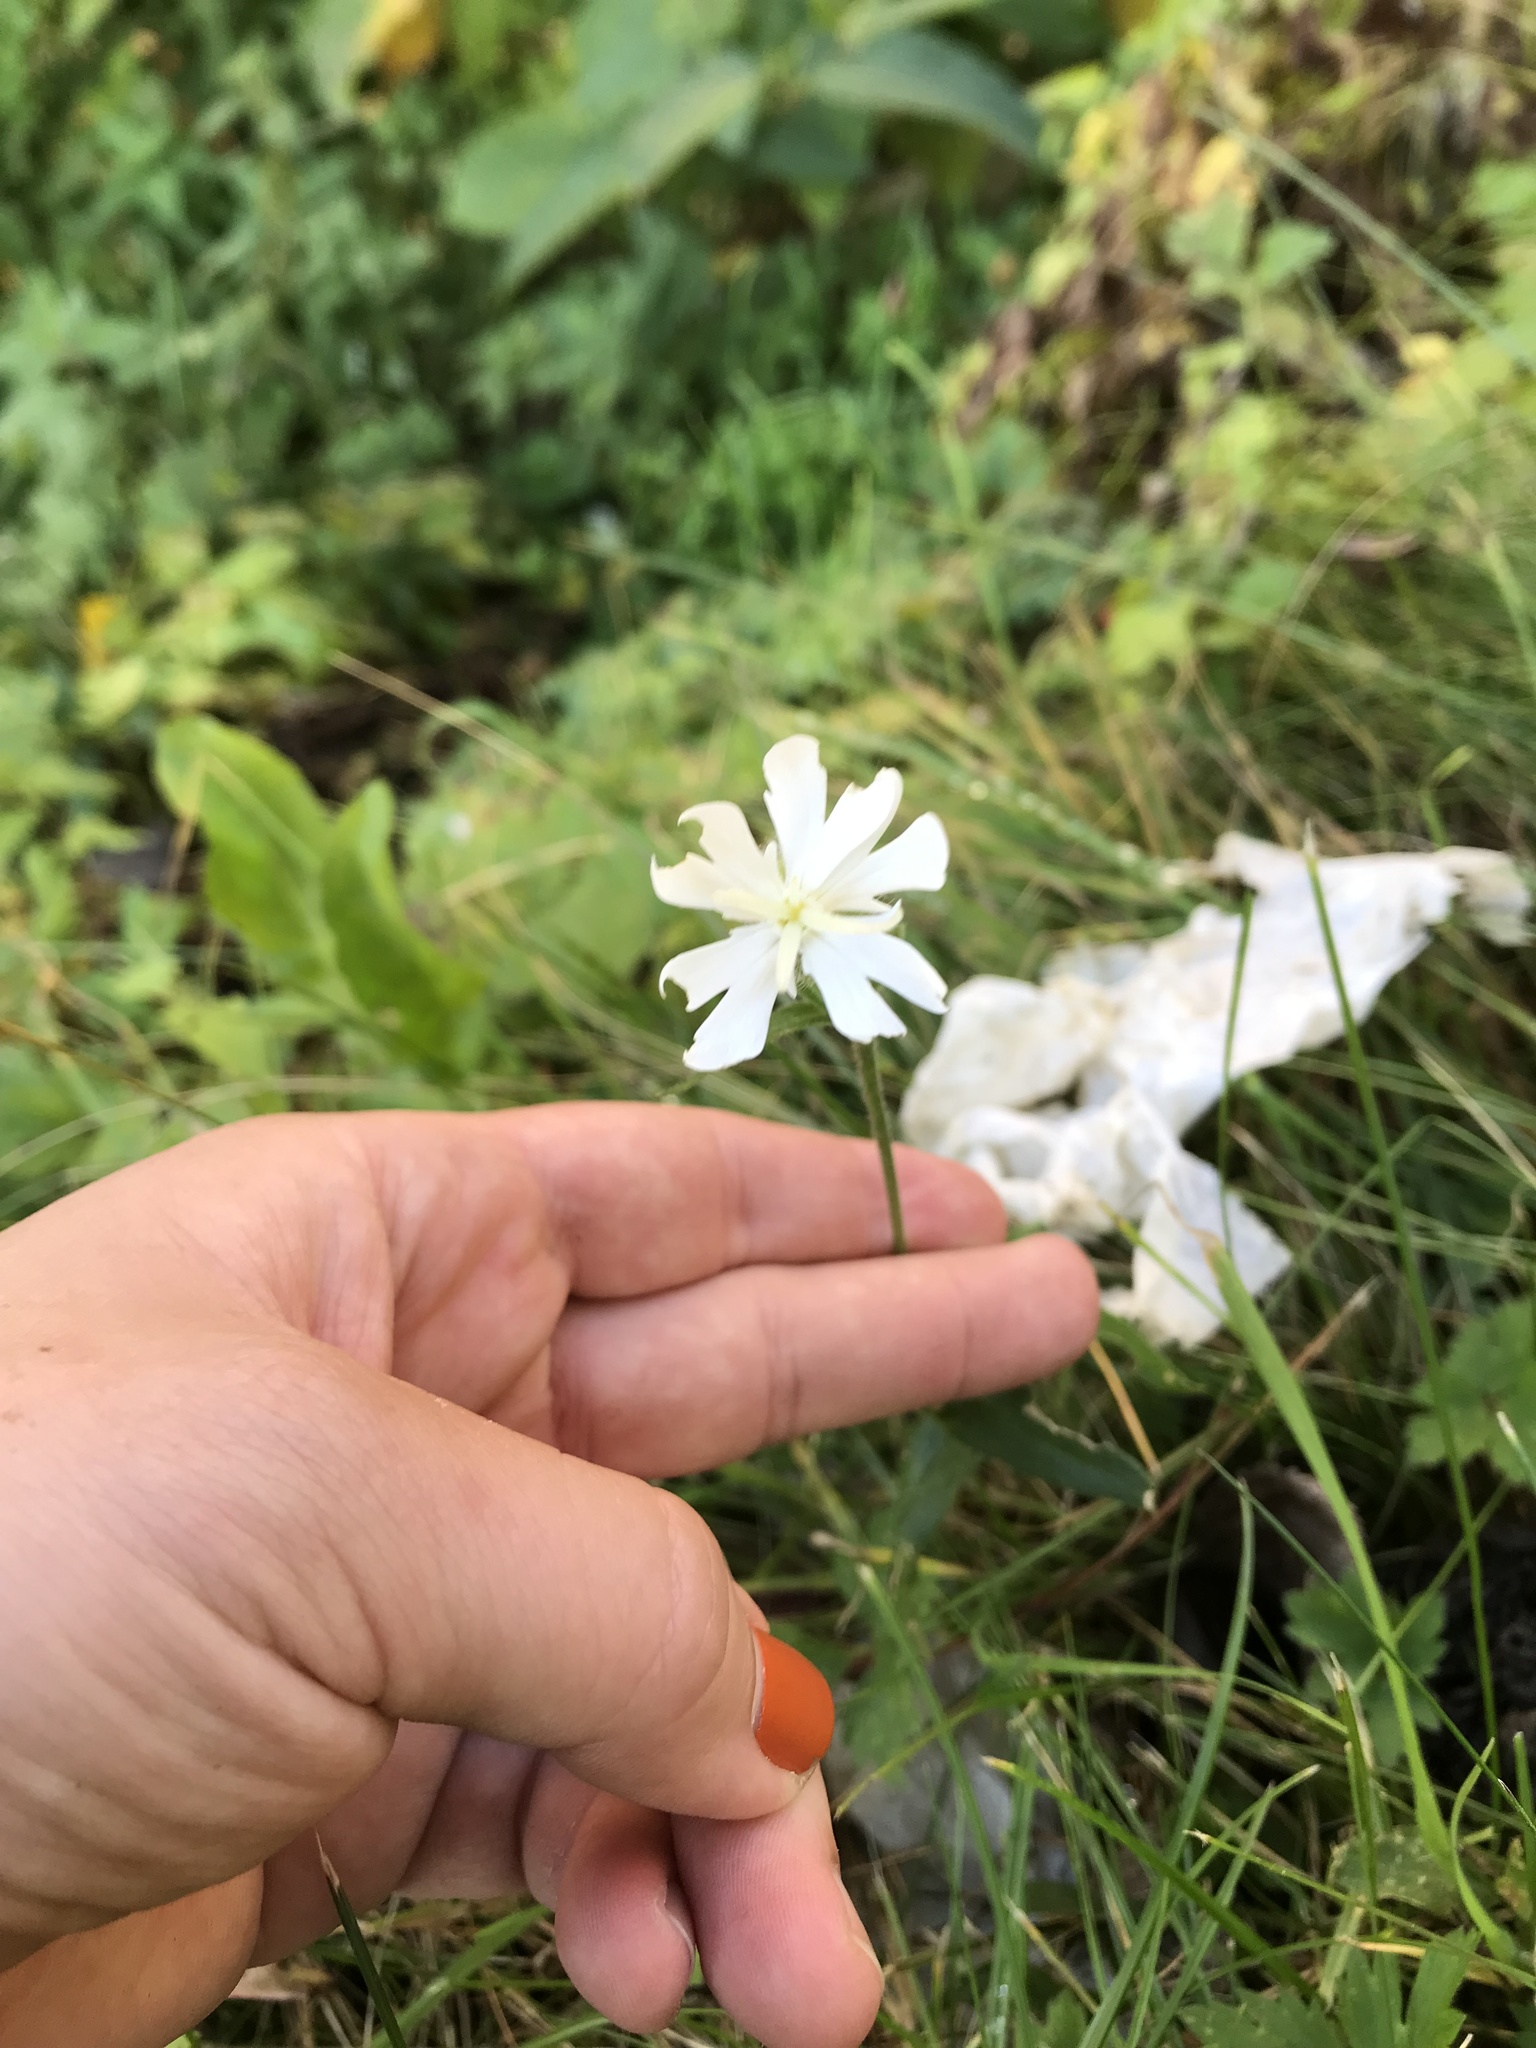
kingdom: Plantae
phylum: Tracheophyta
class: Magnoliopsida
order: Caryophyllales
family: Caryophyllaceae
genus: Silene
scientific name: Silene latifolia
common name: White campion
